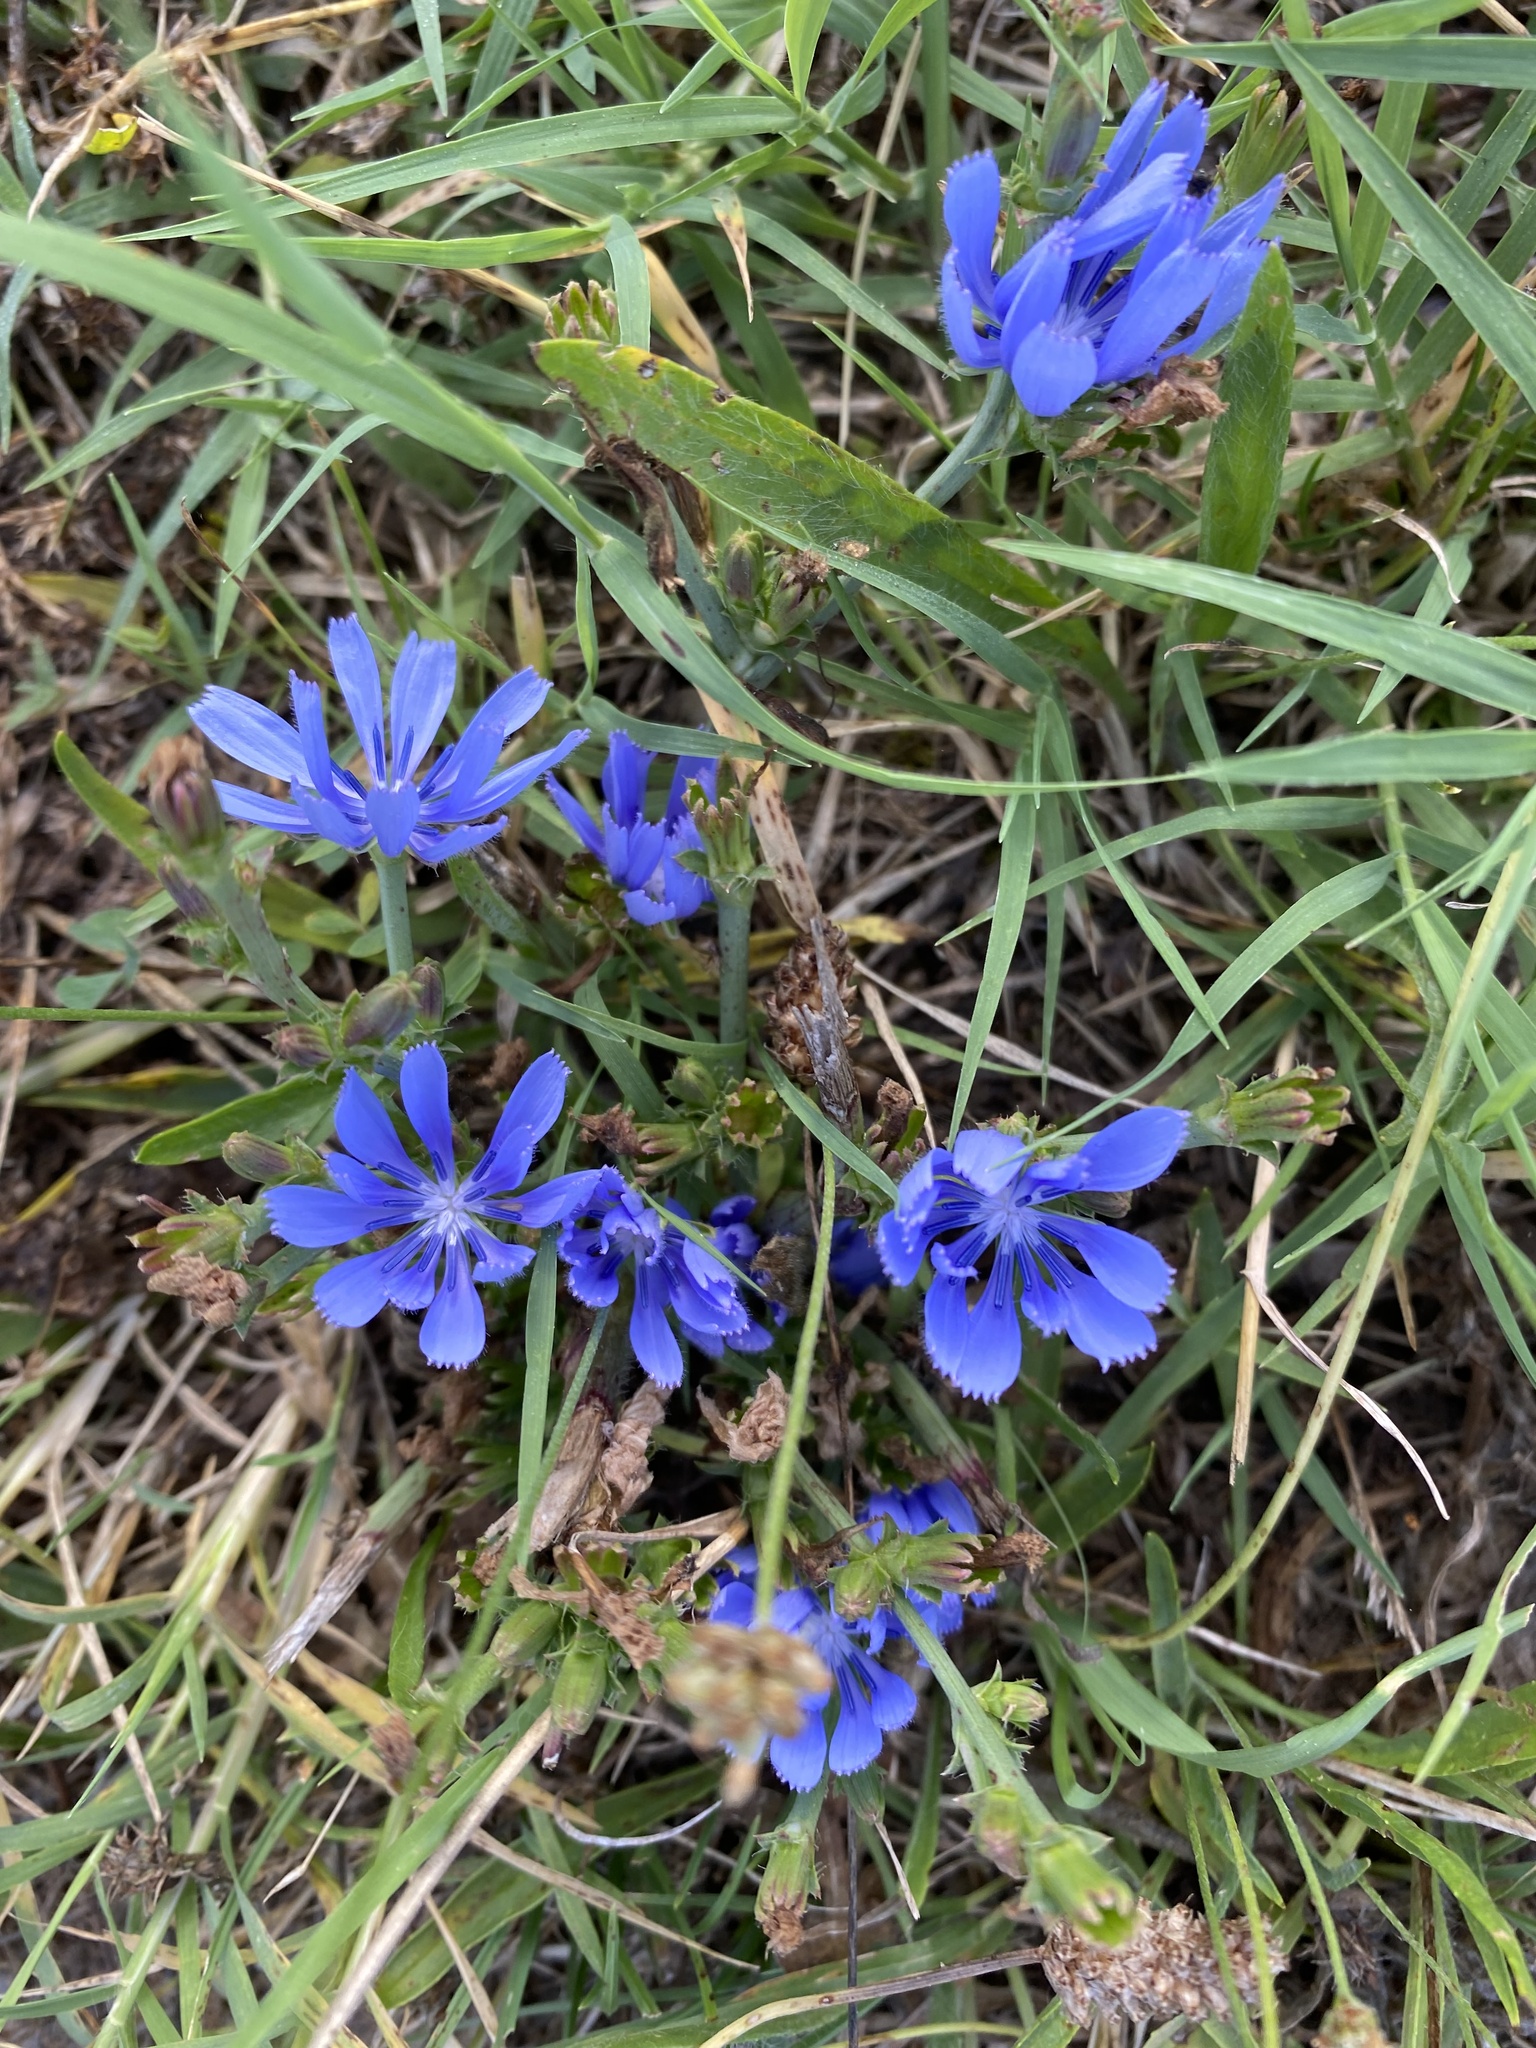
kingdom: Plantae
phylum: Tracheophyta
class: Magnoliopsida
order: Asterales
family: Asteraceae
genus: Cichorium
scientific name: Cichorium intybus
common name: Chicory
